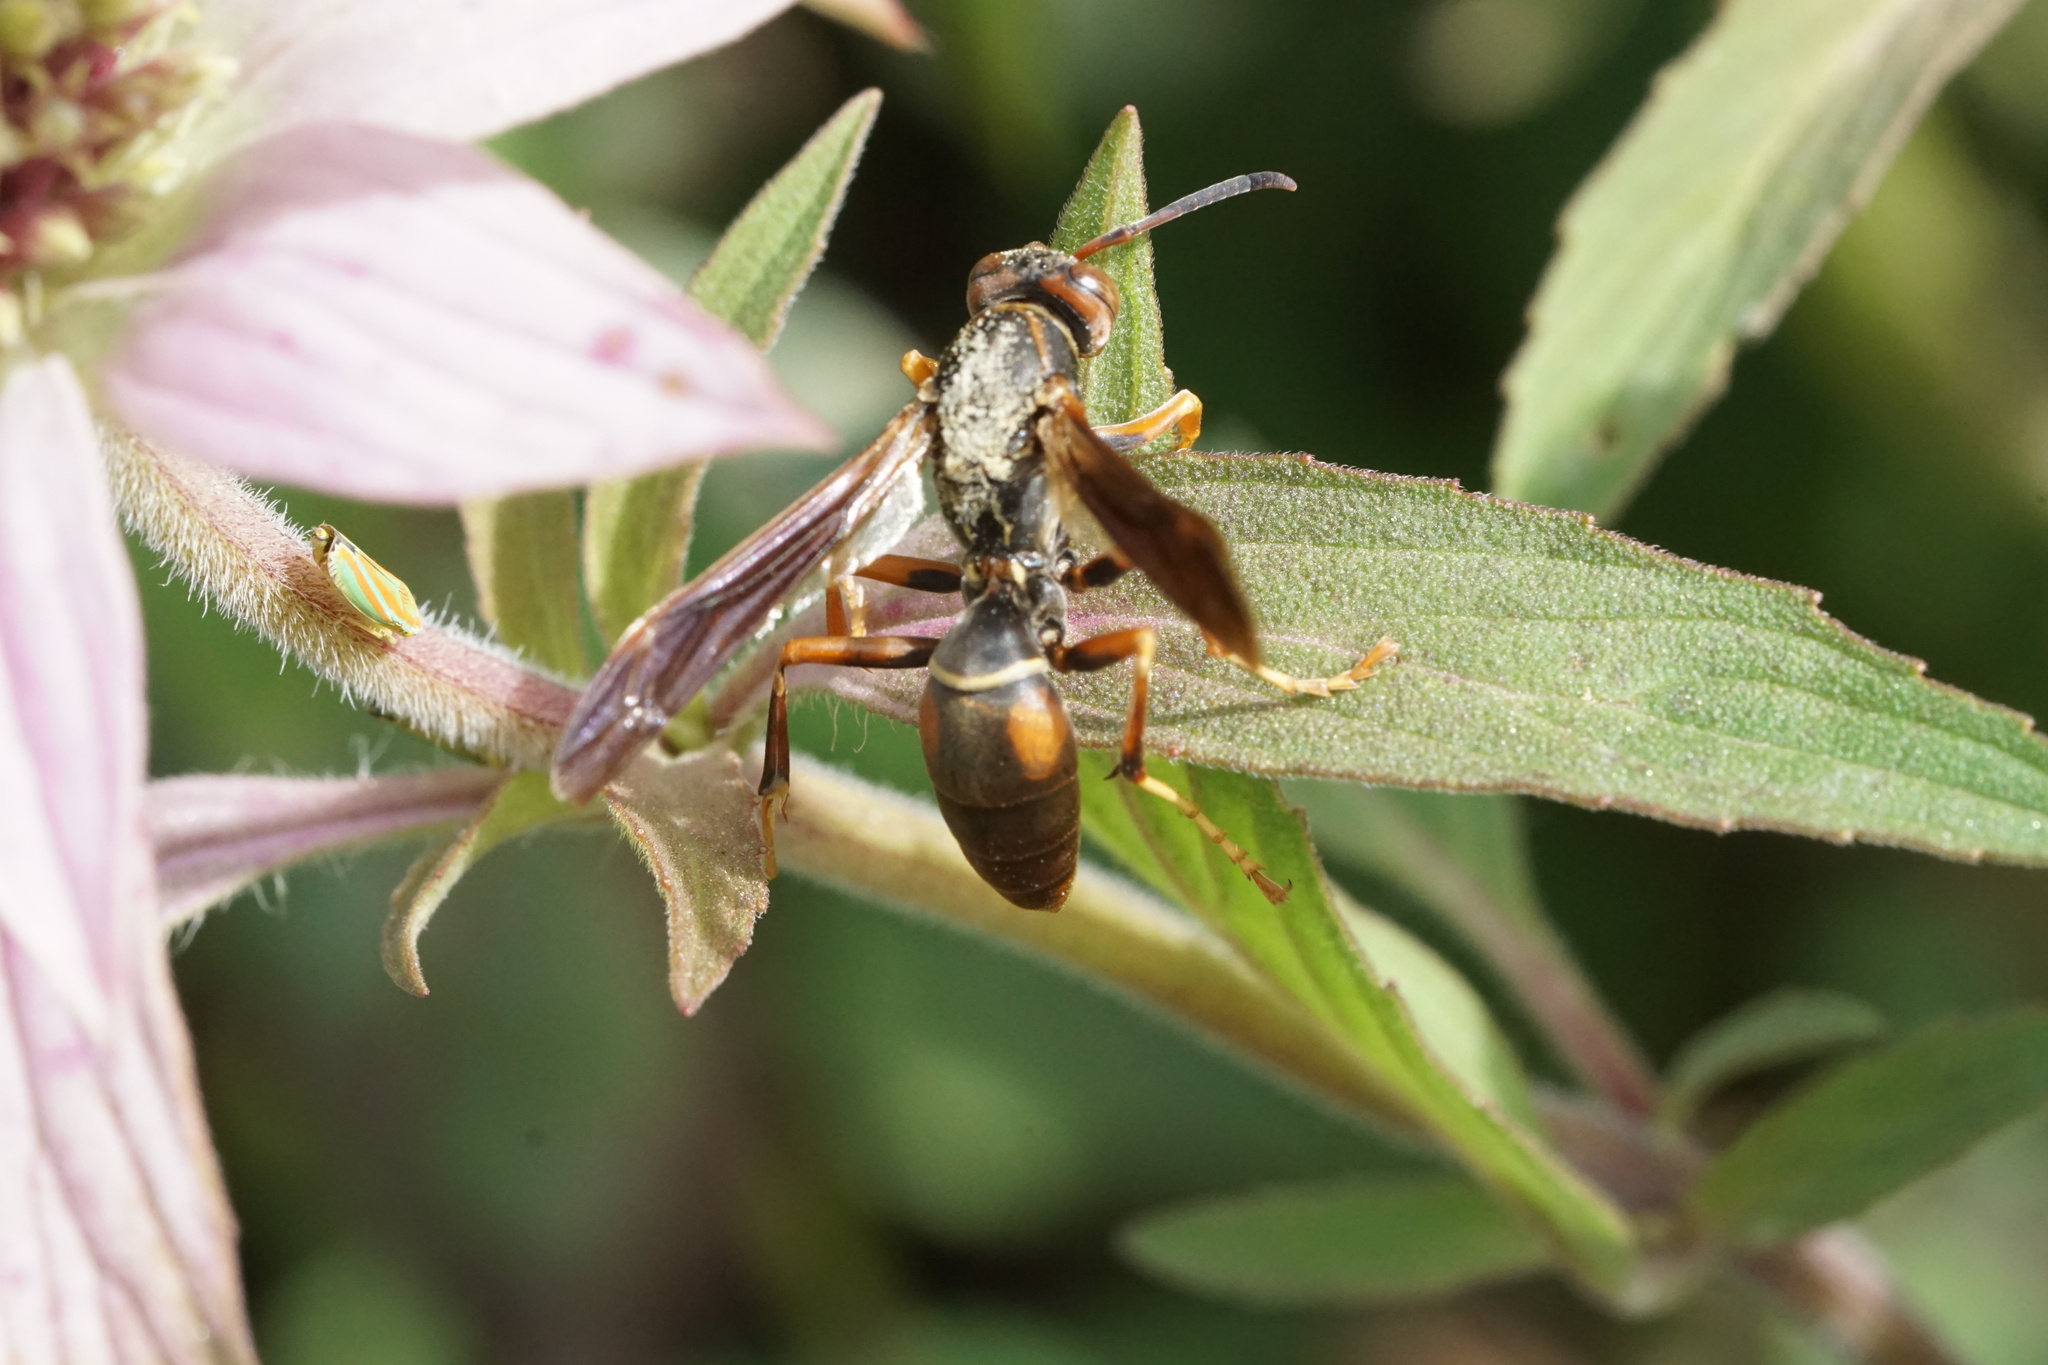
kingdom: Animalia
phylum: Arthropoda
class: Insecta
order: Hymenoptera
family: Eumenidae
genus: Polistes
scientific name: Polistes fuscatus
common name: Dark paper wasp
